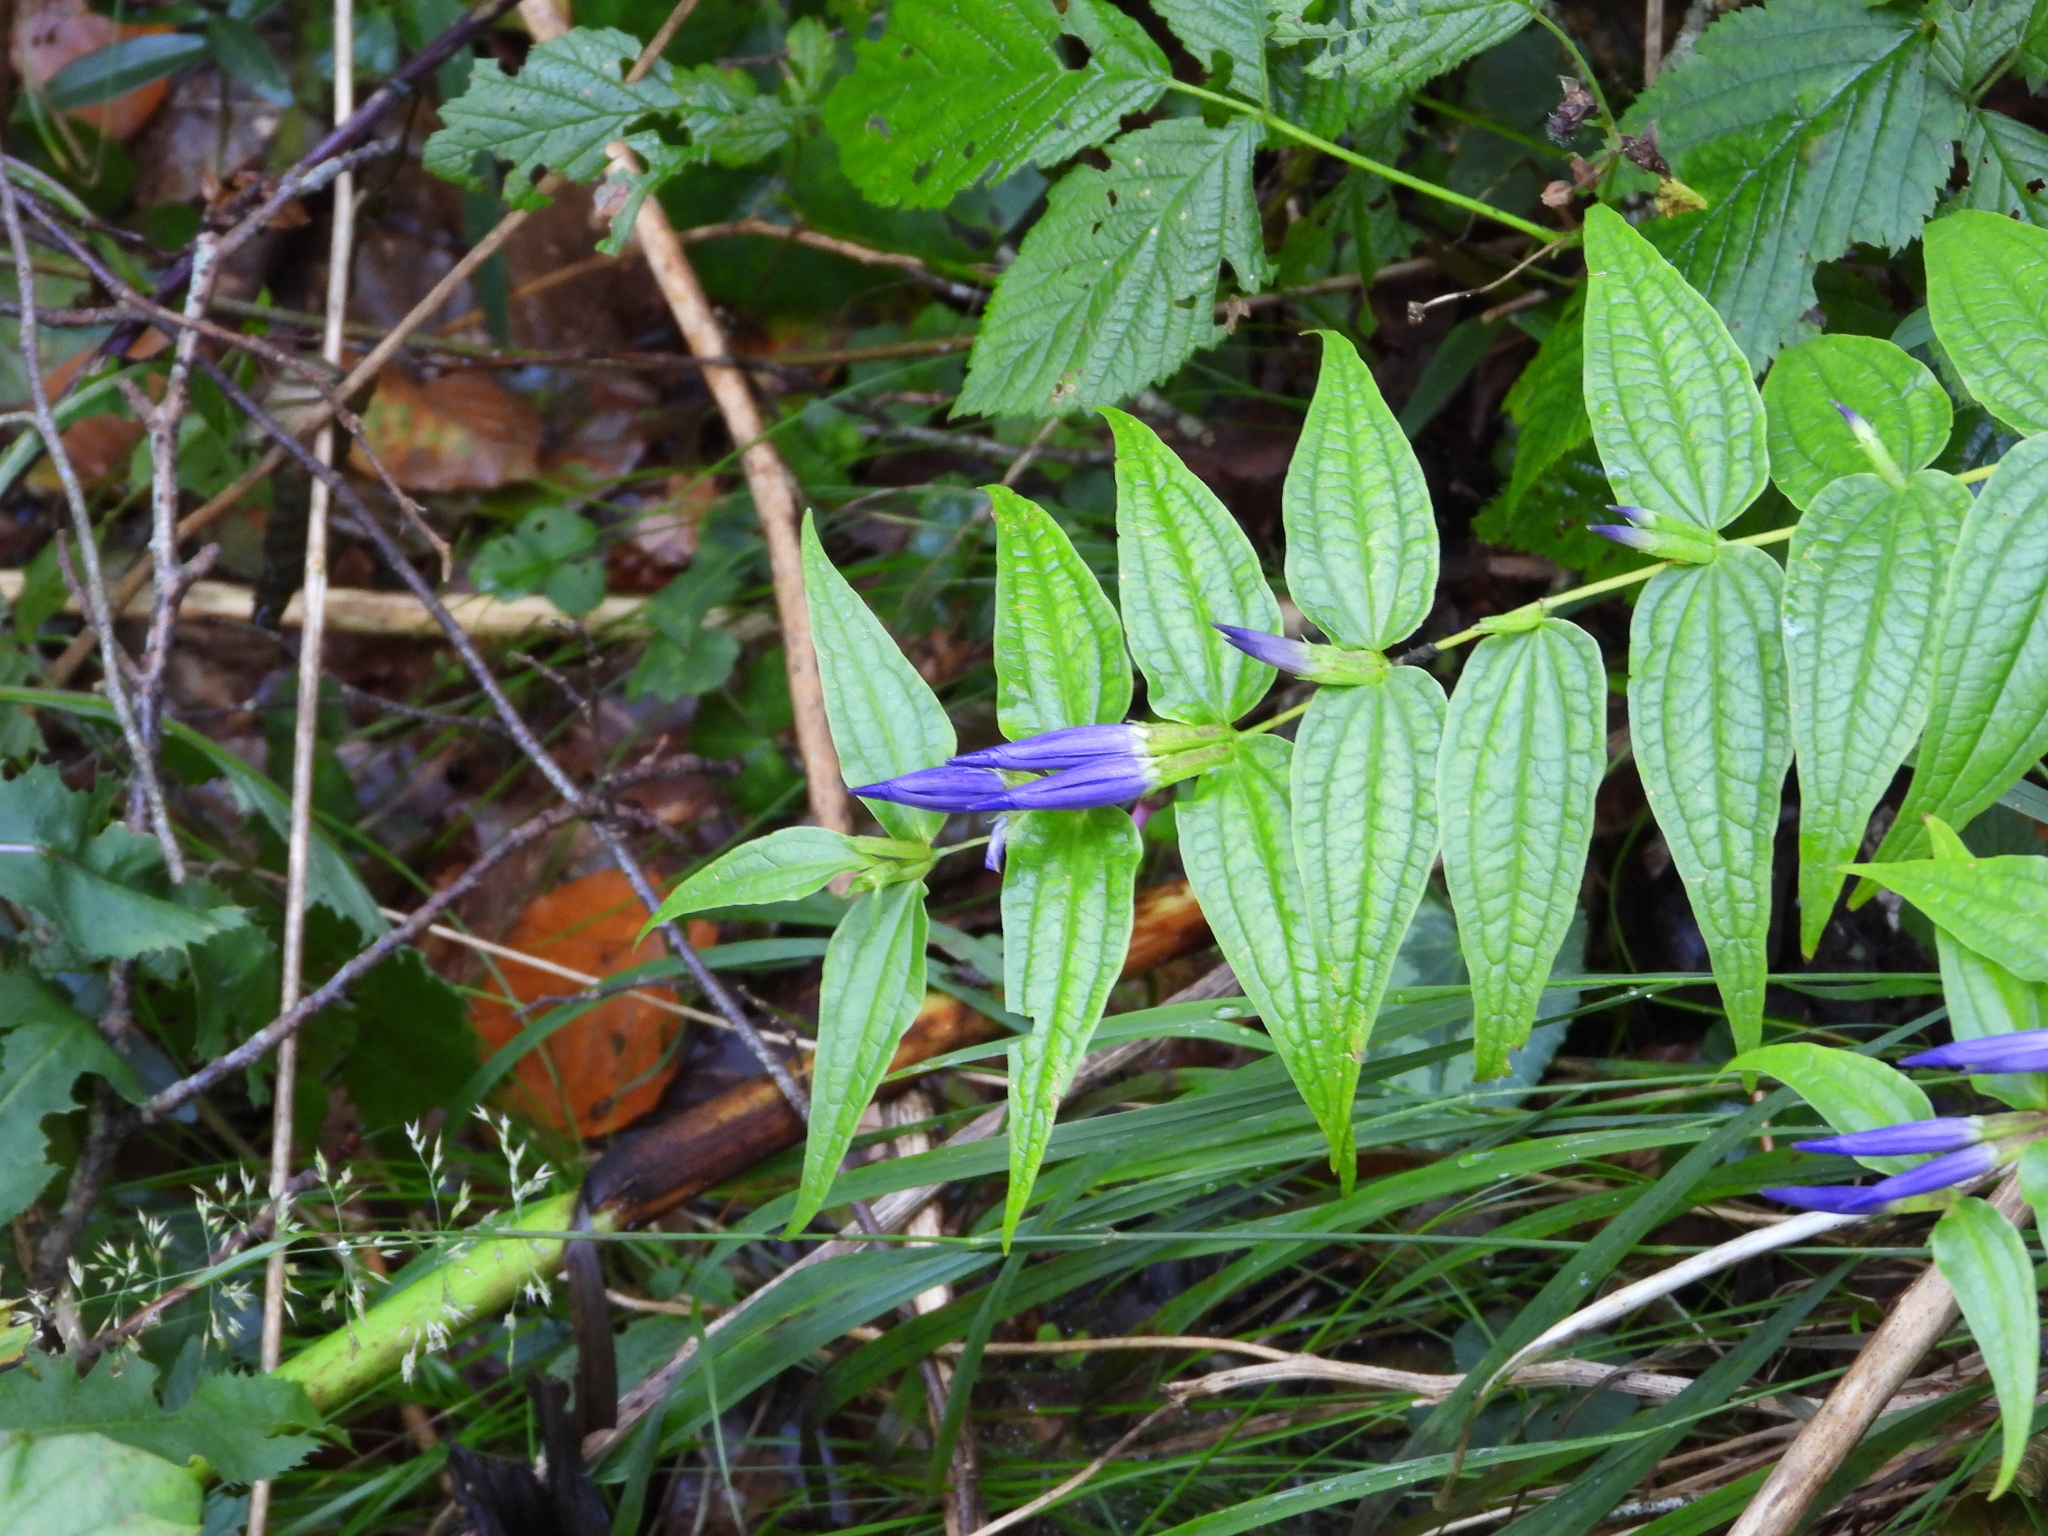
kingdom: Plantae
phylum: Tracheophyta
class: Magnoliopsida
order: Gentianales
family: Gentianaceae
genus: Gentiana
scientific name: Gentiana asclepiadea
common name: Willow gentian
